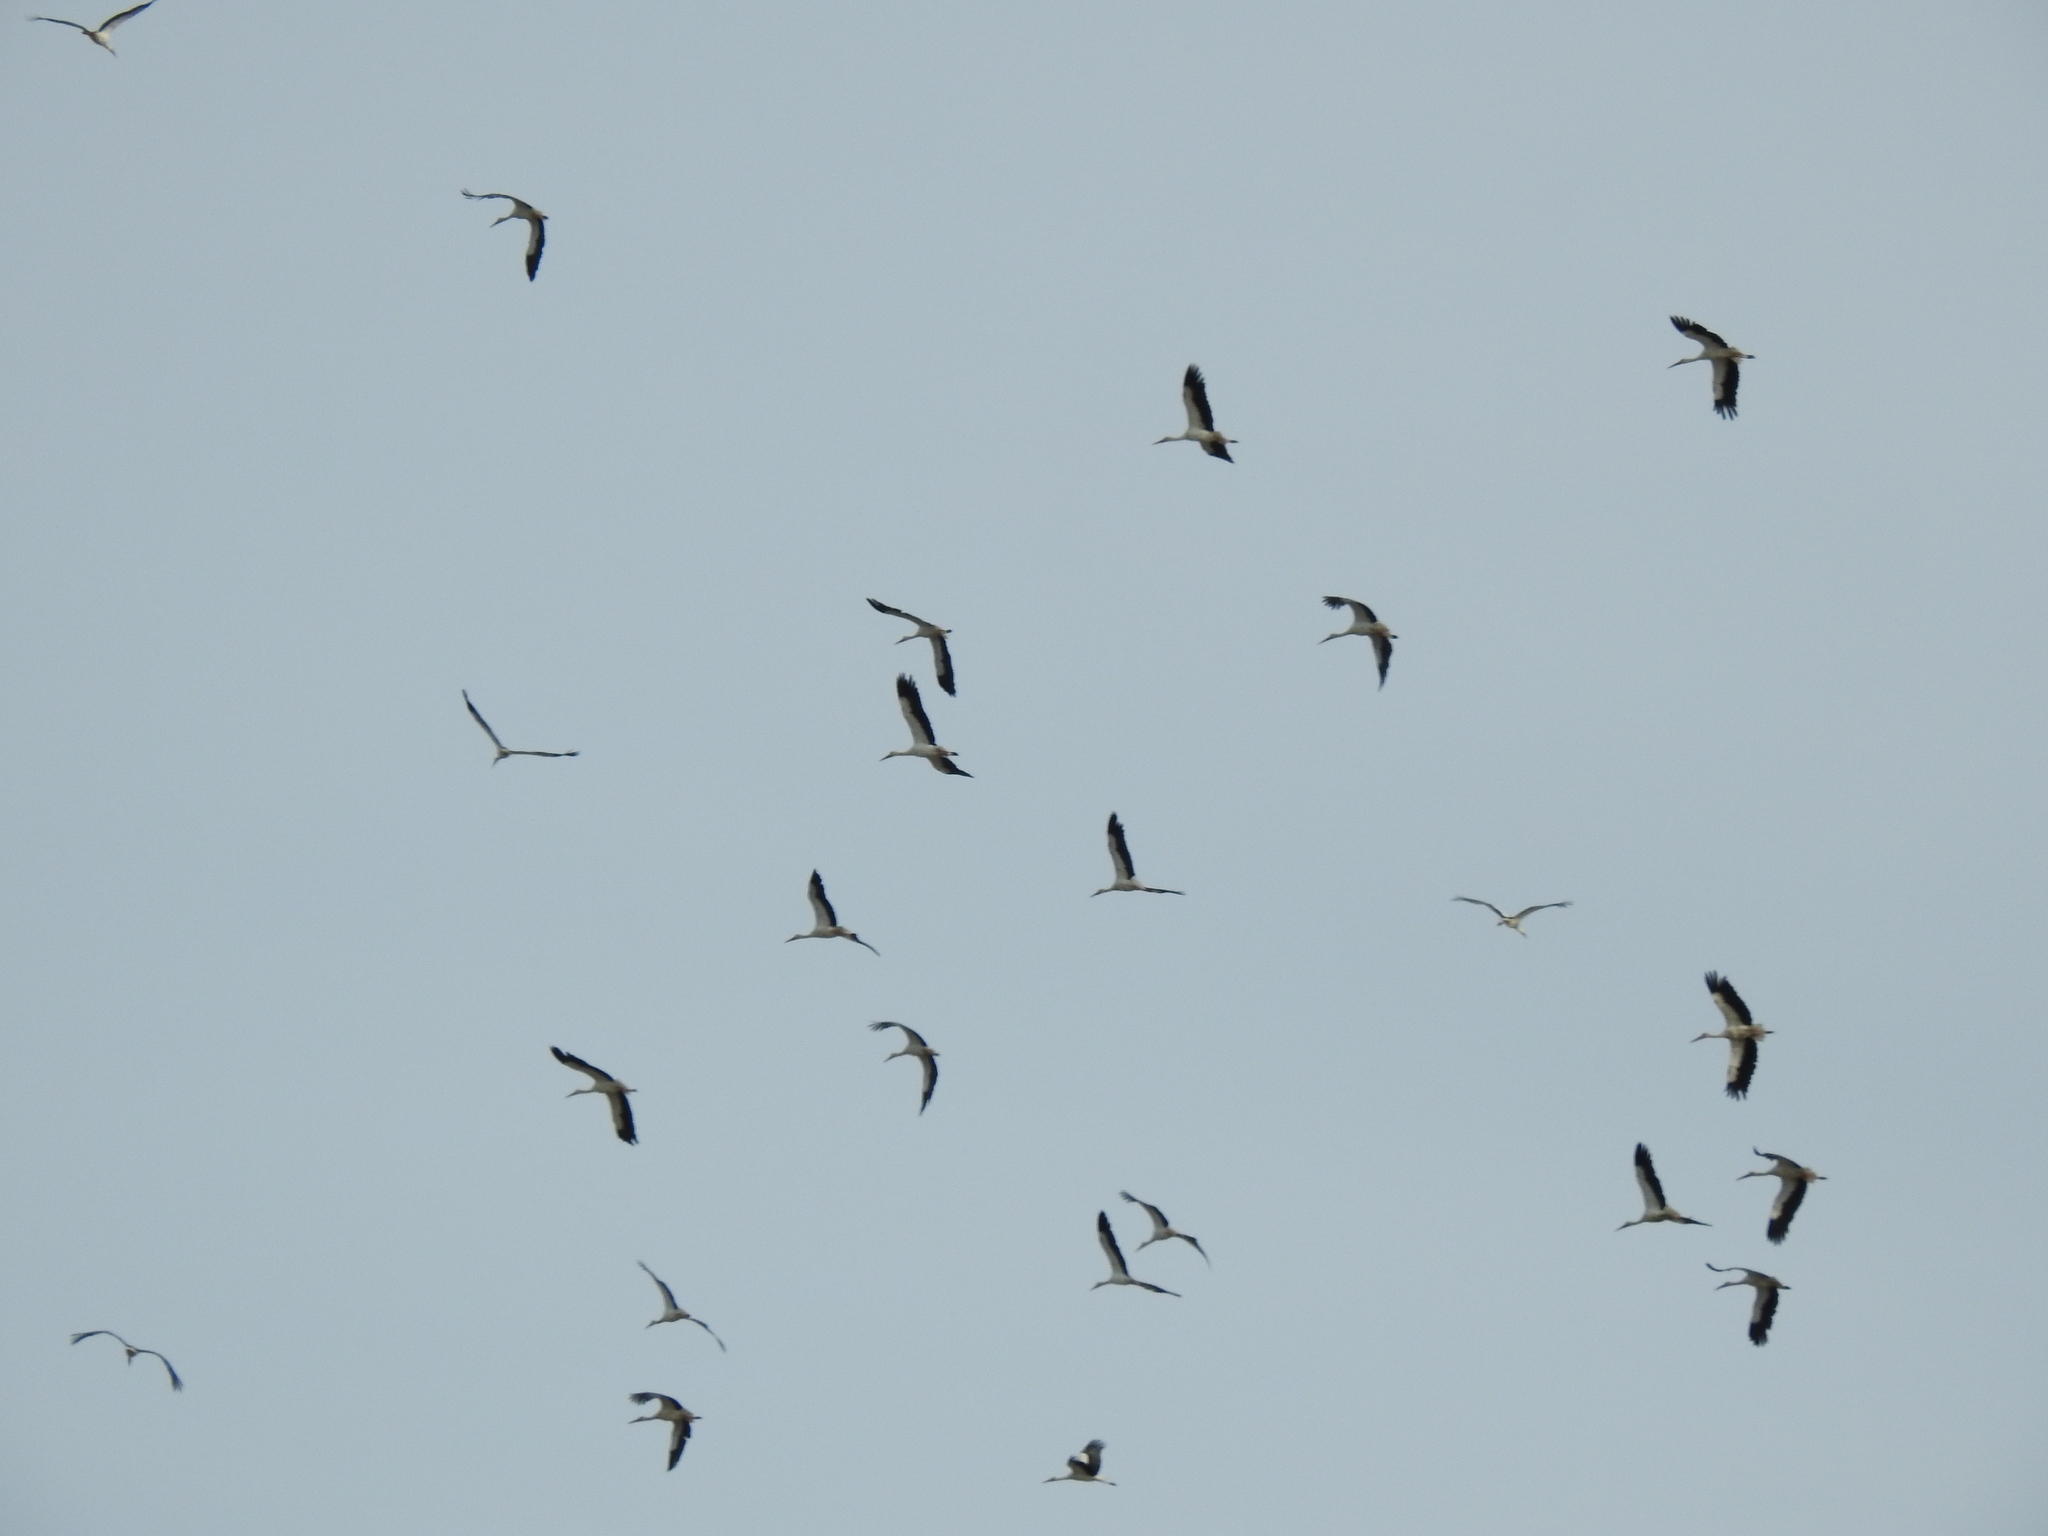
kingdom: Animalia
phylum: Chordata
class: Aves
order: Ciconiiformes
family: Ciconiidae
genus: Ciconia
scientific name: Ciconia ciconia
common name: White stork
